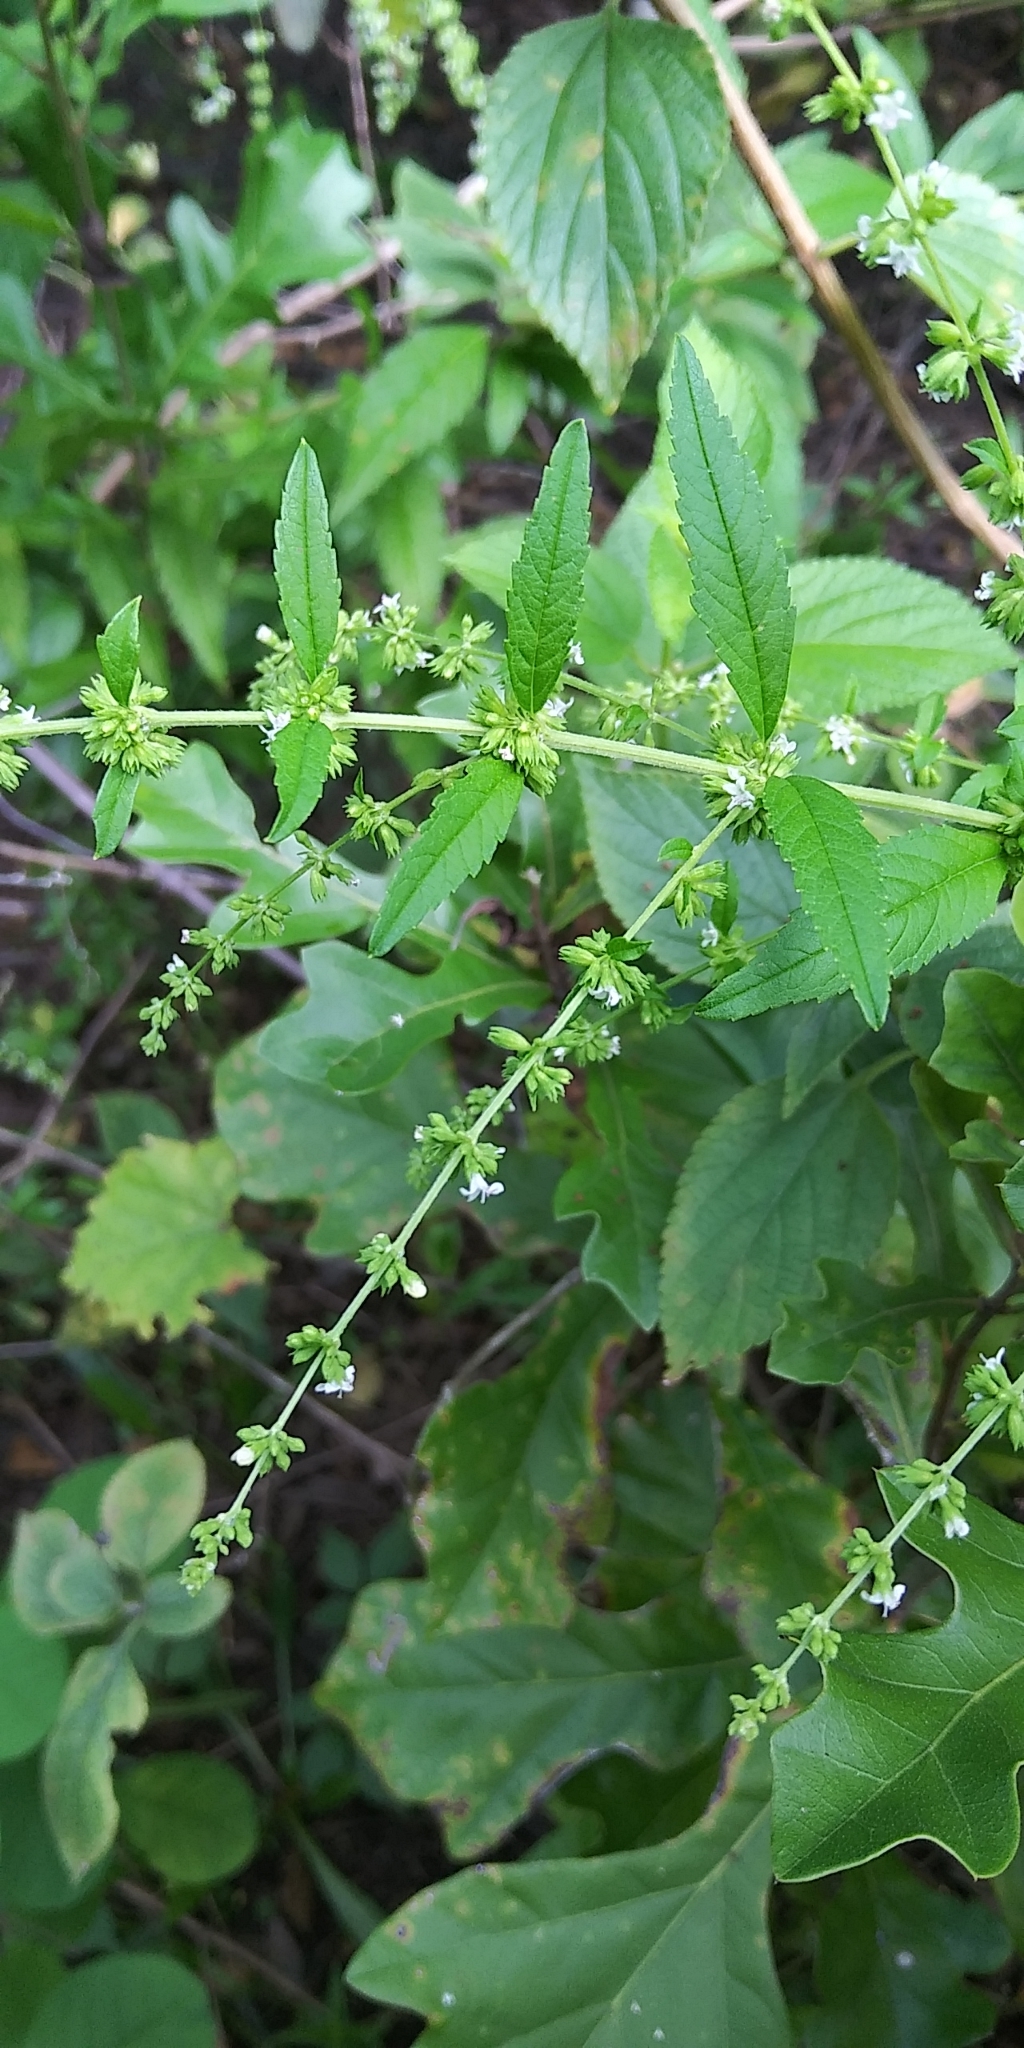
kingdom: Plantae
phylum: Tracheophyta
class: Magnoliopsida
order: Lamiales
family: Lamiaceae
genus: Condea
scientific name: Condea verticillata
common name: John charles
